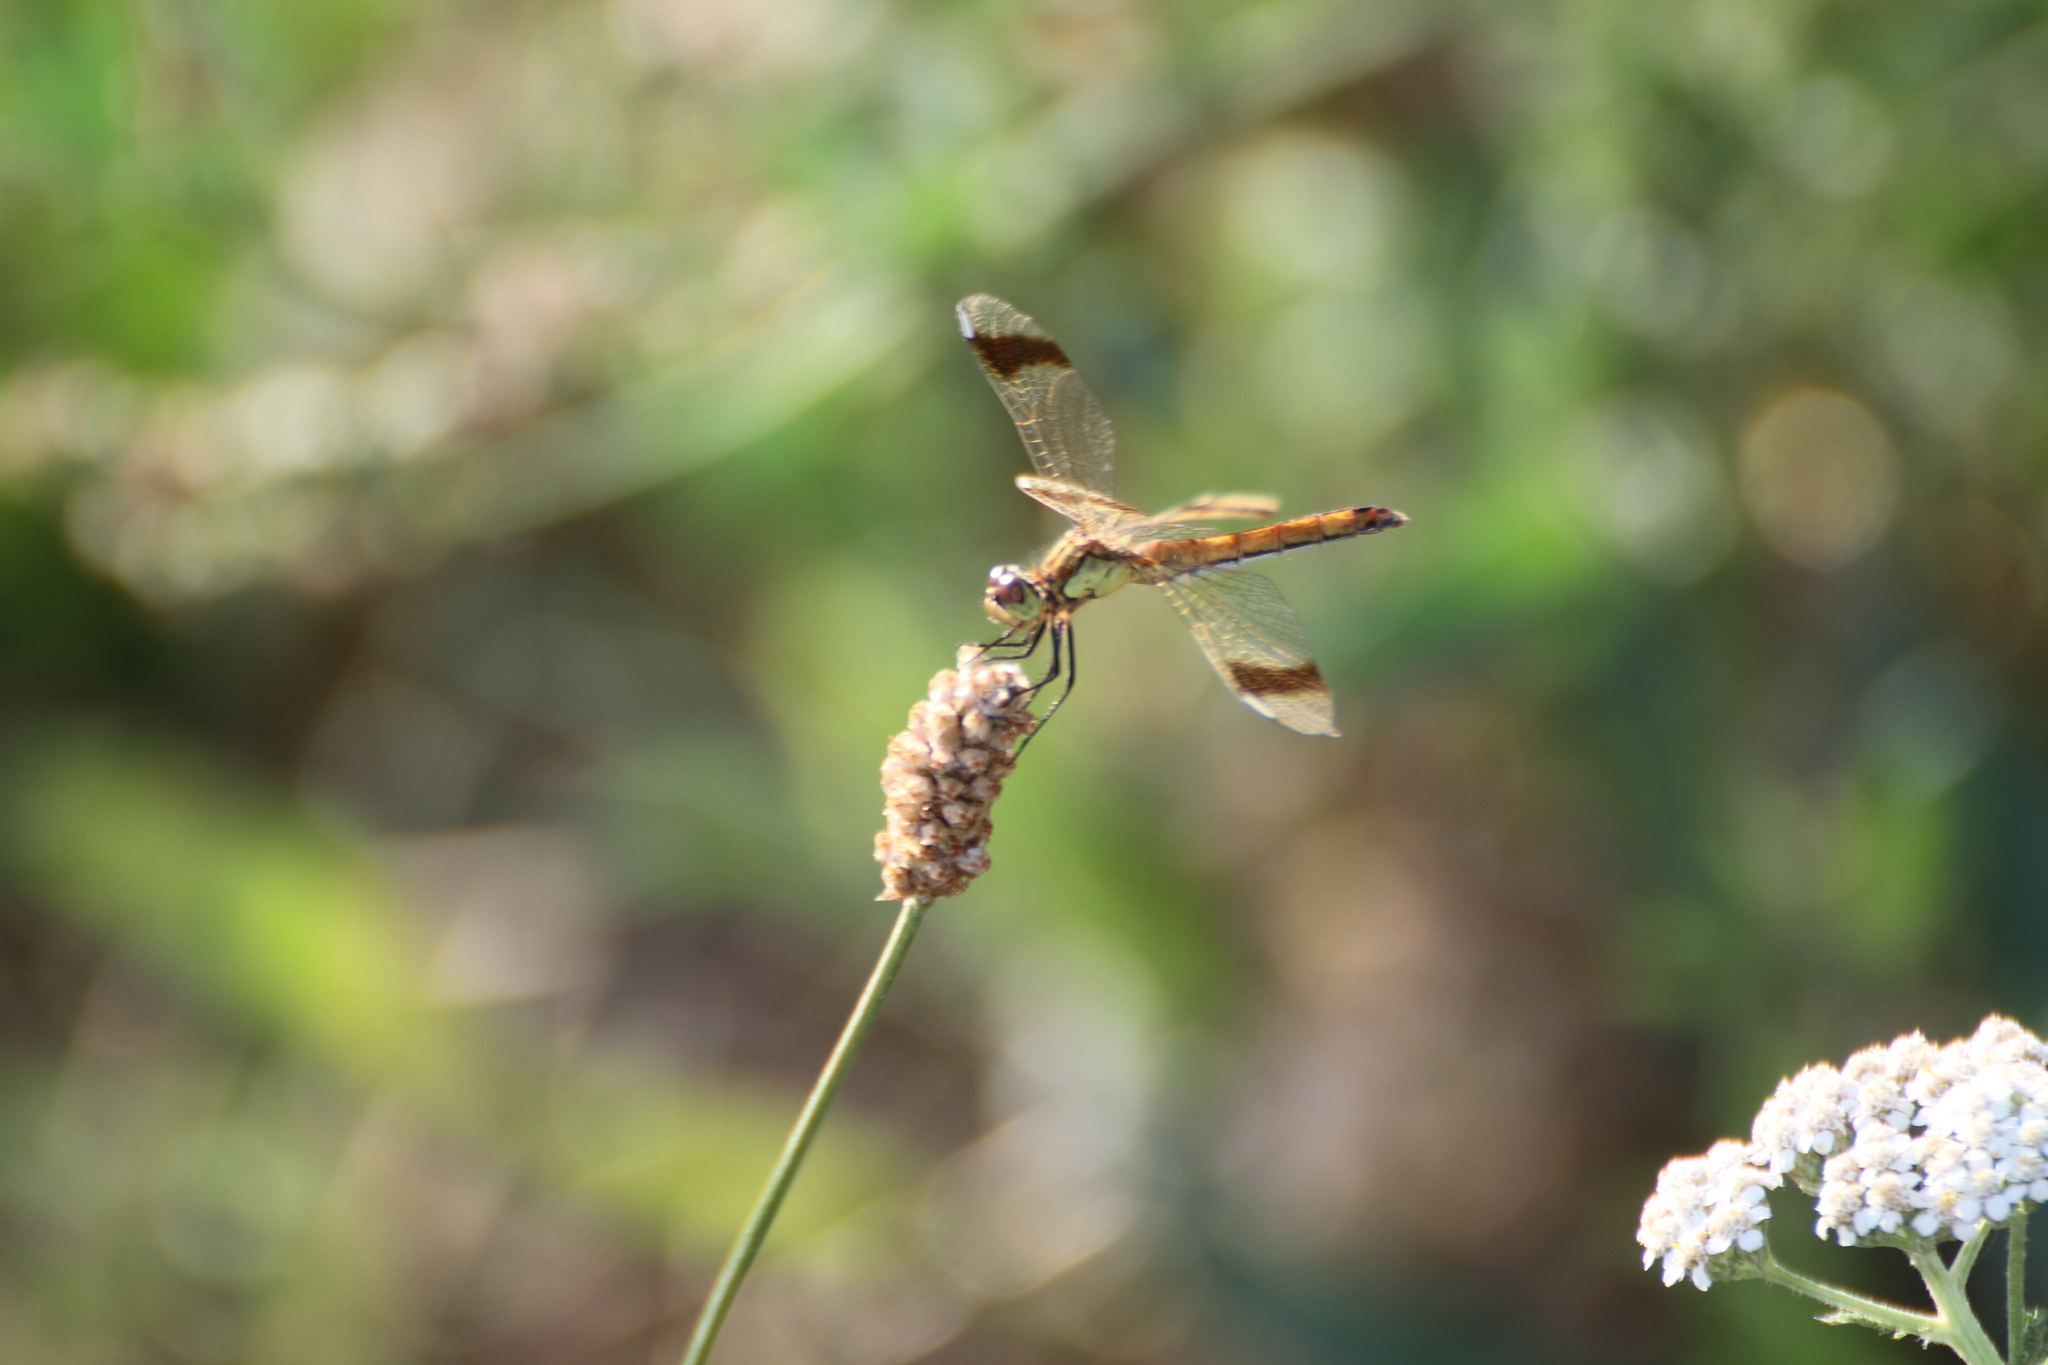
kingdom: Animalia
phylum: Arthropoda
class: Insecta
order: Odonata
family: Libellulidae
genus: Sympetrum
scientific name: Sympetrum pedemontanum
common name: Banded darter
